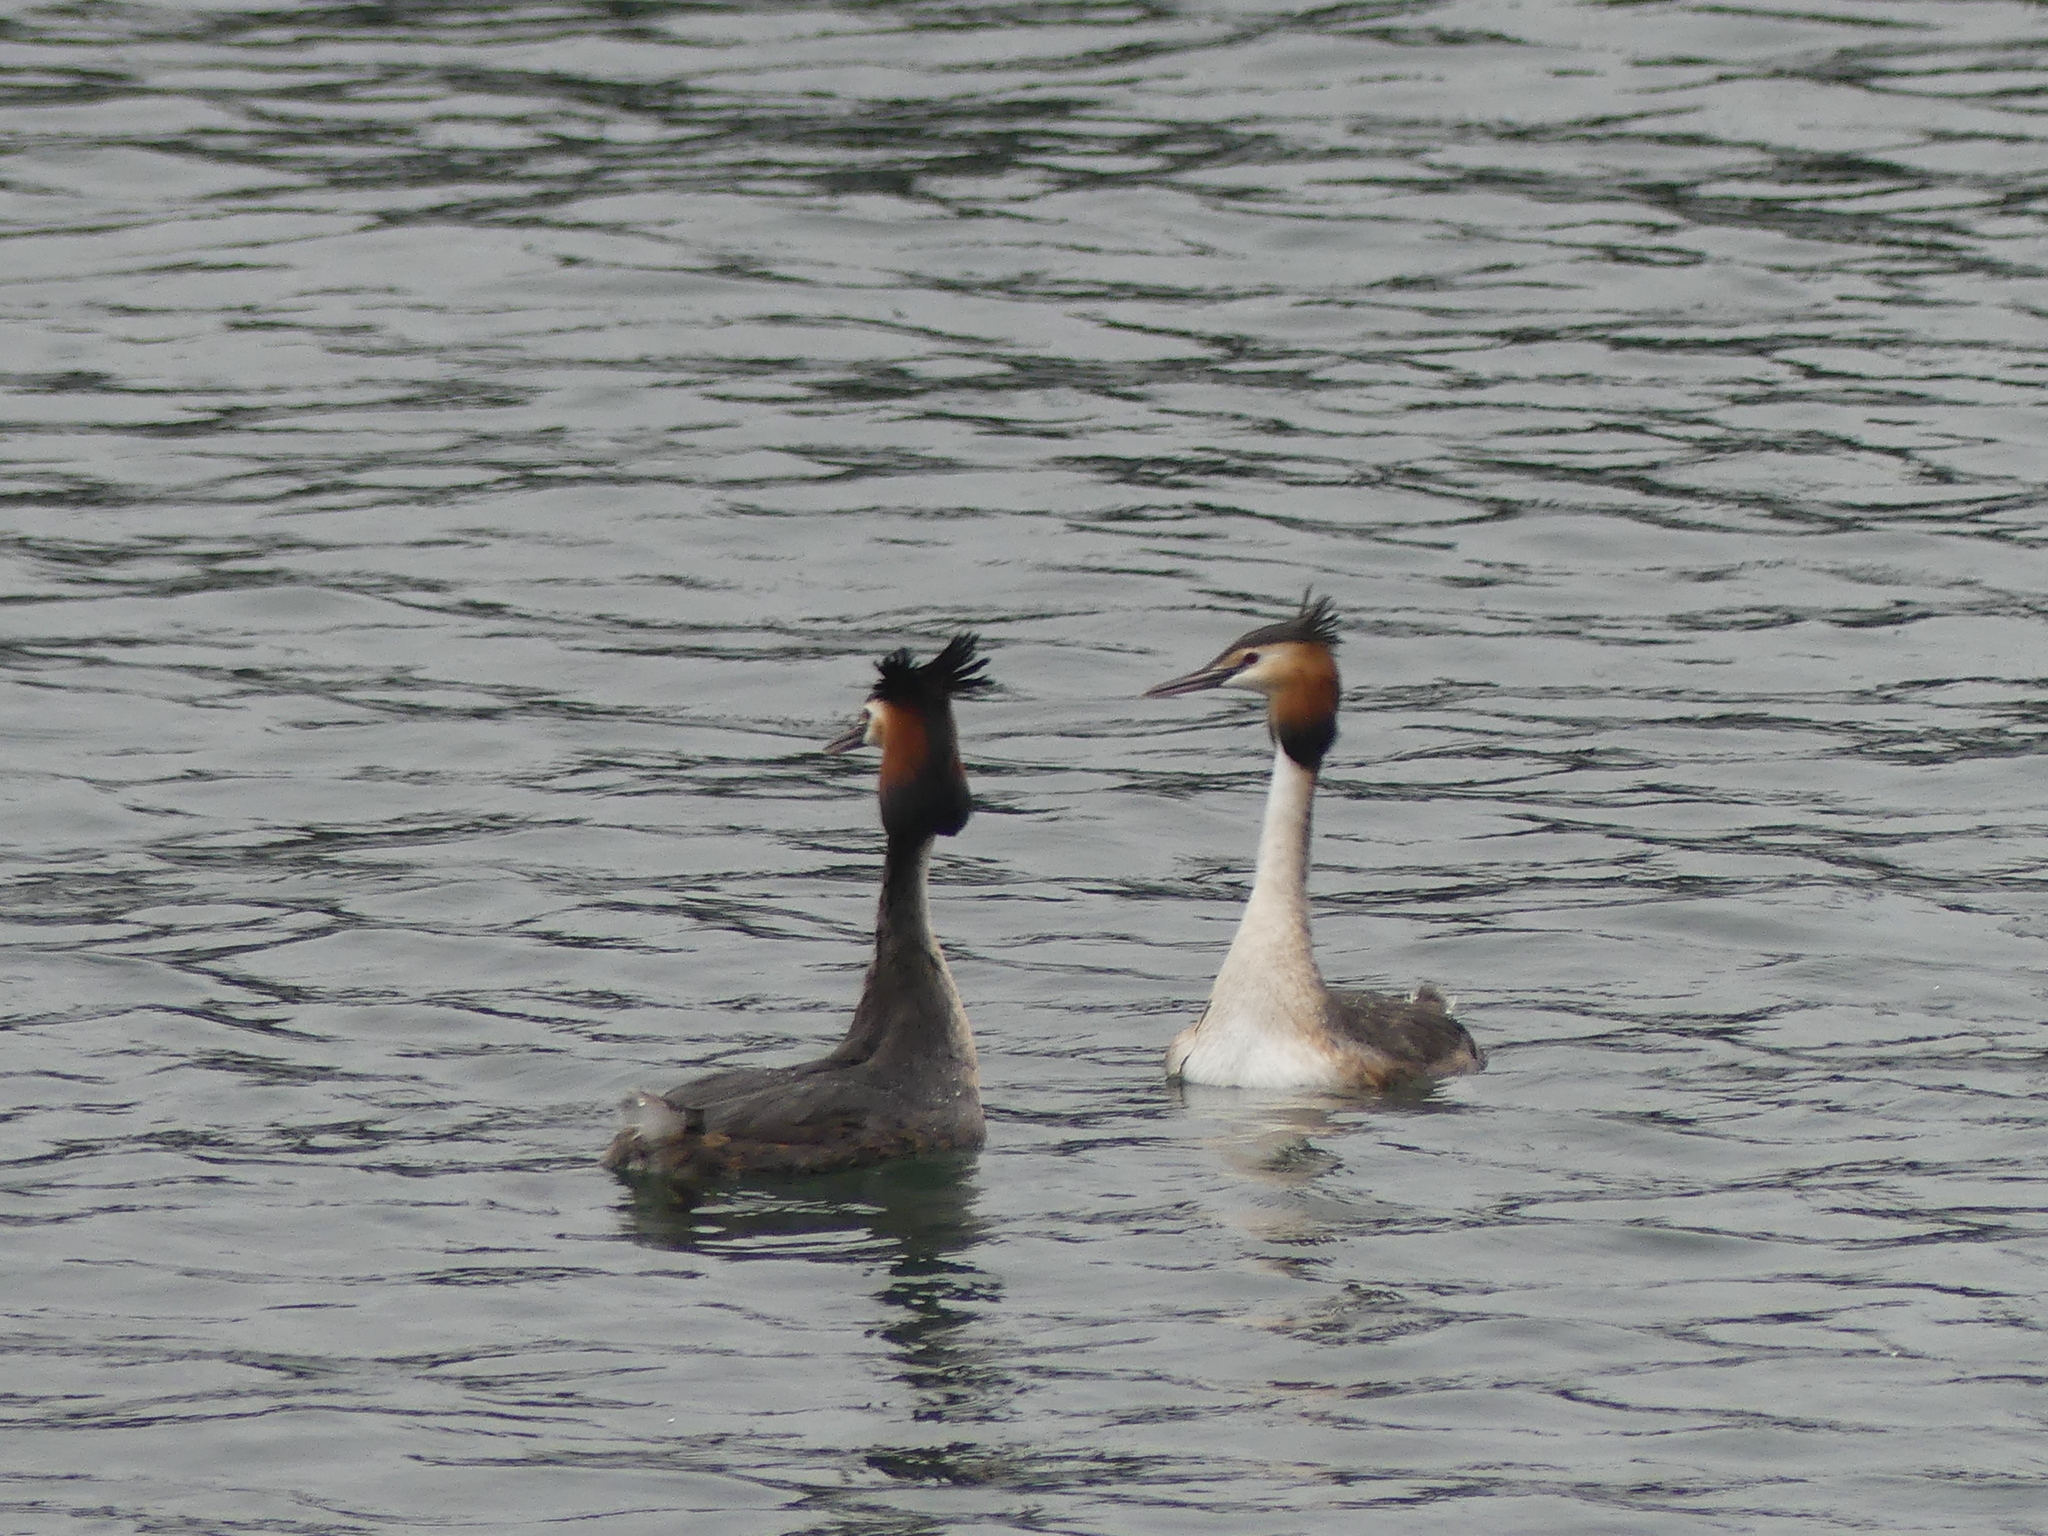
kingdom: Animalia
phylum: Chordata
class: Aves
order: Podicipediformes
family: Podicipedidae
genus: Podiceps
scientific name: Podiceps cristatus
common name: Great crested grebe
